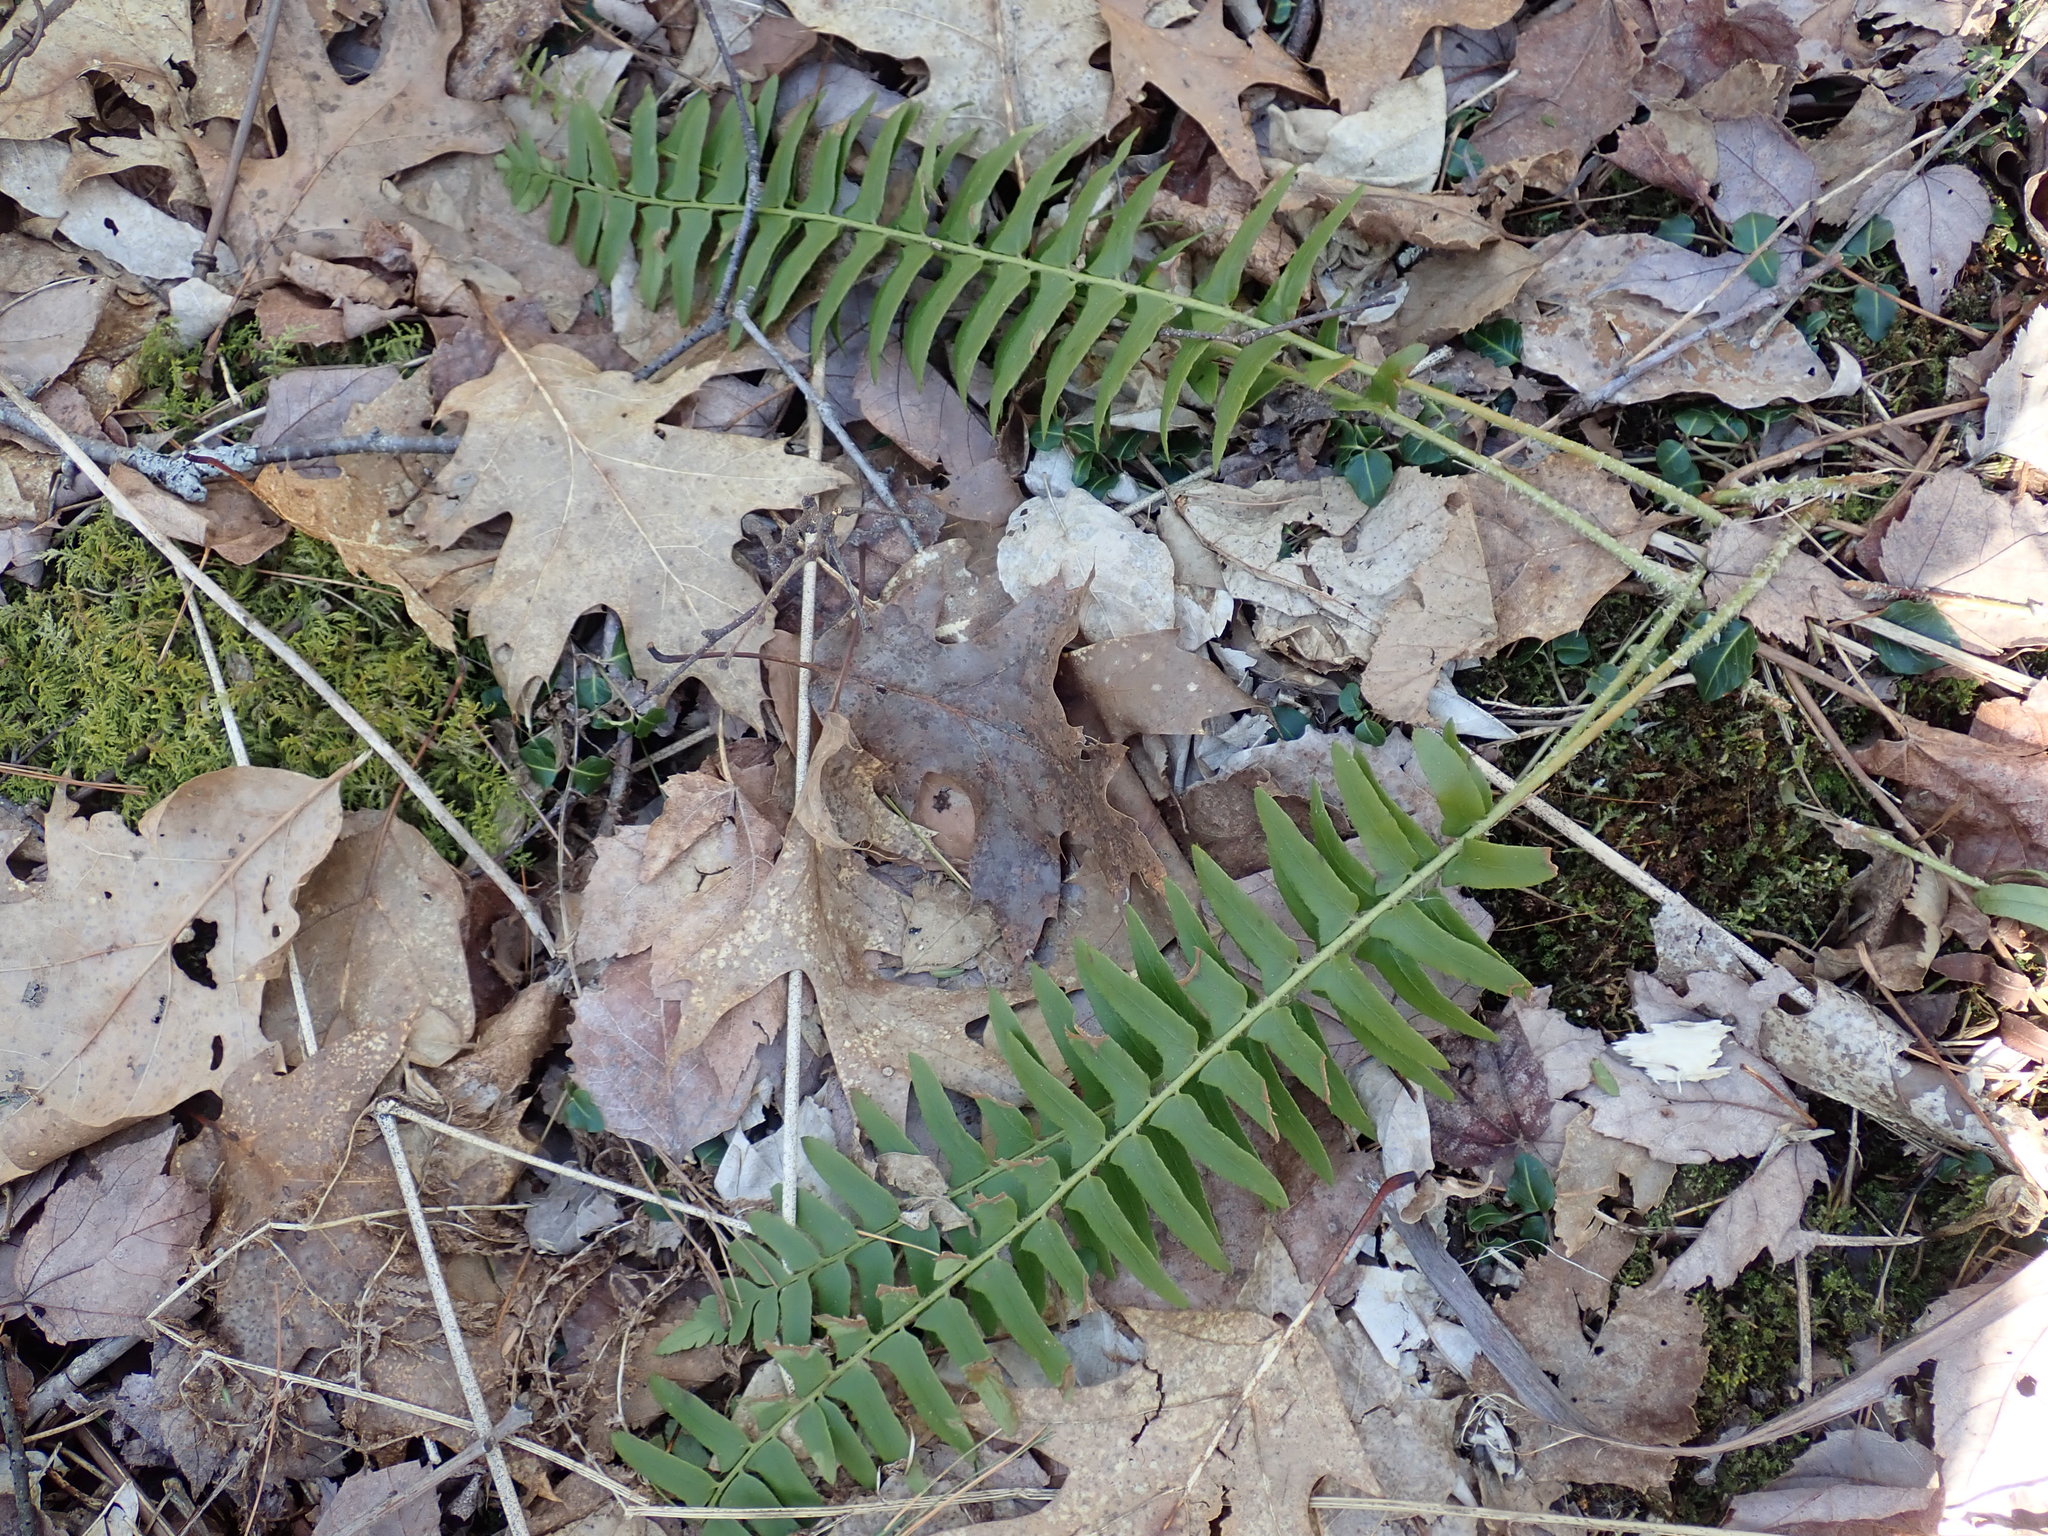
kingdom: Plantae
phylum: Tracheophyta
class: Polypodiopsida
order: Polypodiales
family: Dryopteridaceae
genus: Polystichum
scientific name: Polystichum acrostichoides
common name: Christmas fern
